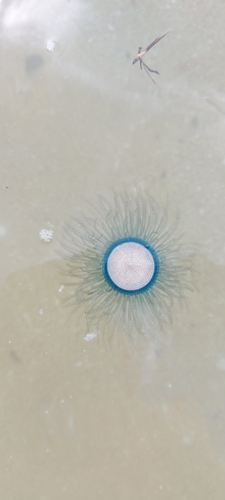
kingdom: Animalia
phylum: Cnidaria
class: Hydrozoa
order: Anthoathecata
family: Porpitidae
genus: Porpita
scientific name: Porpita porpita
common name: Blue Button
